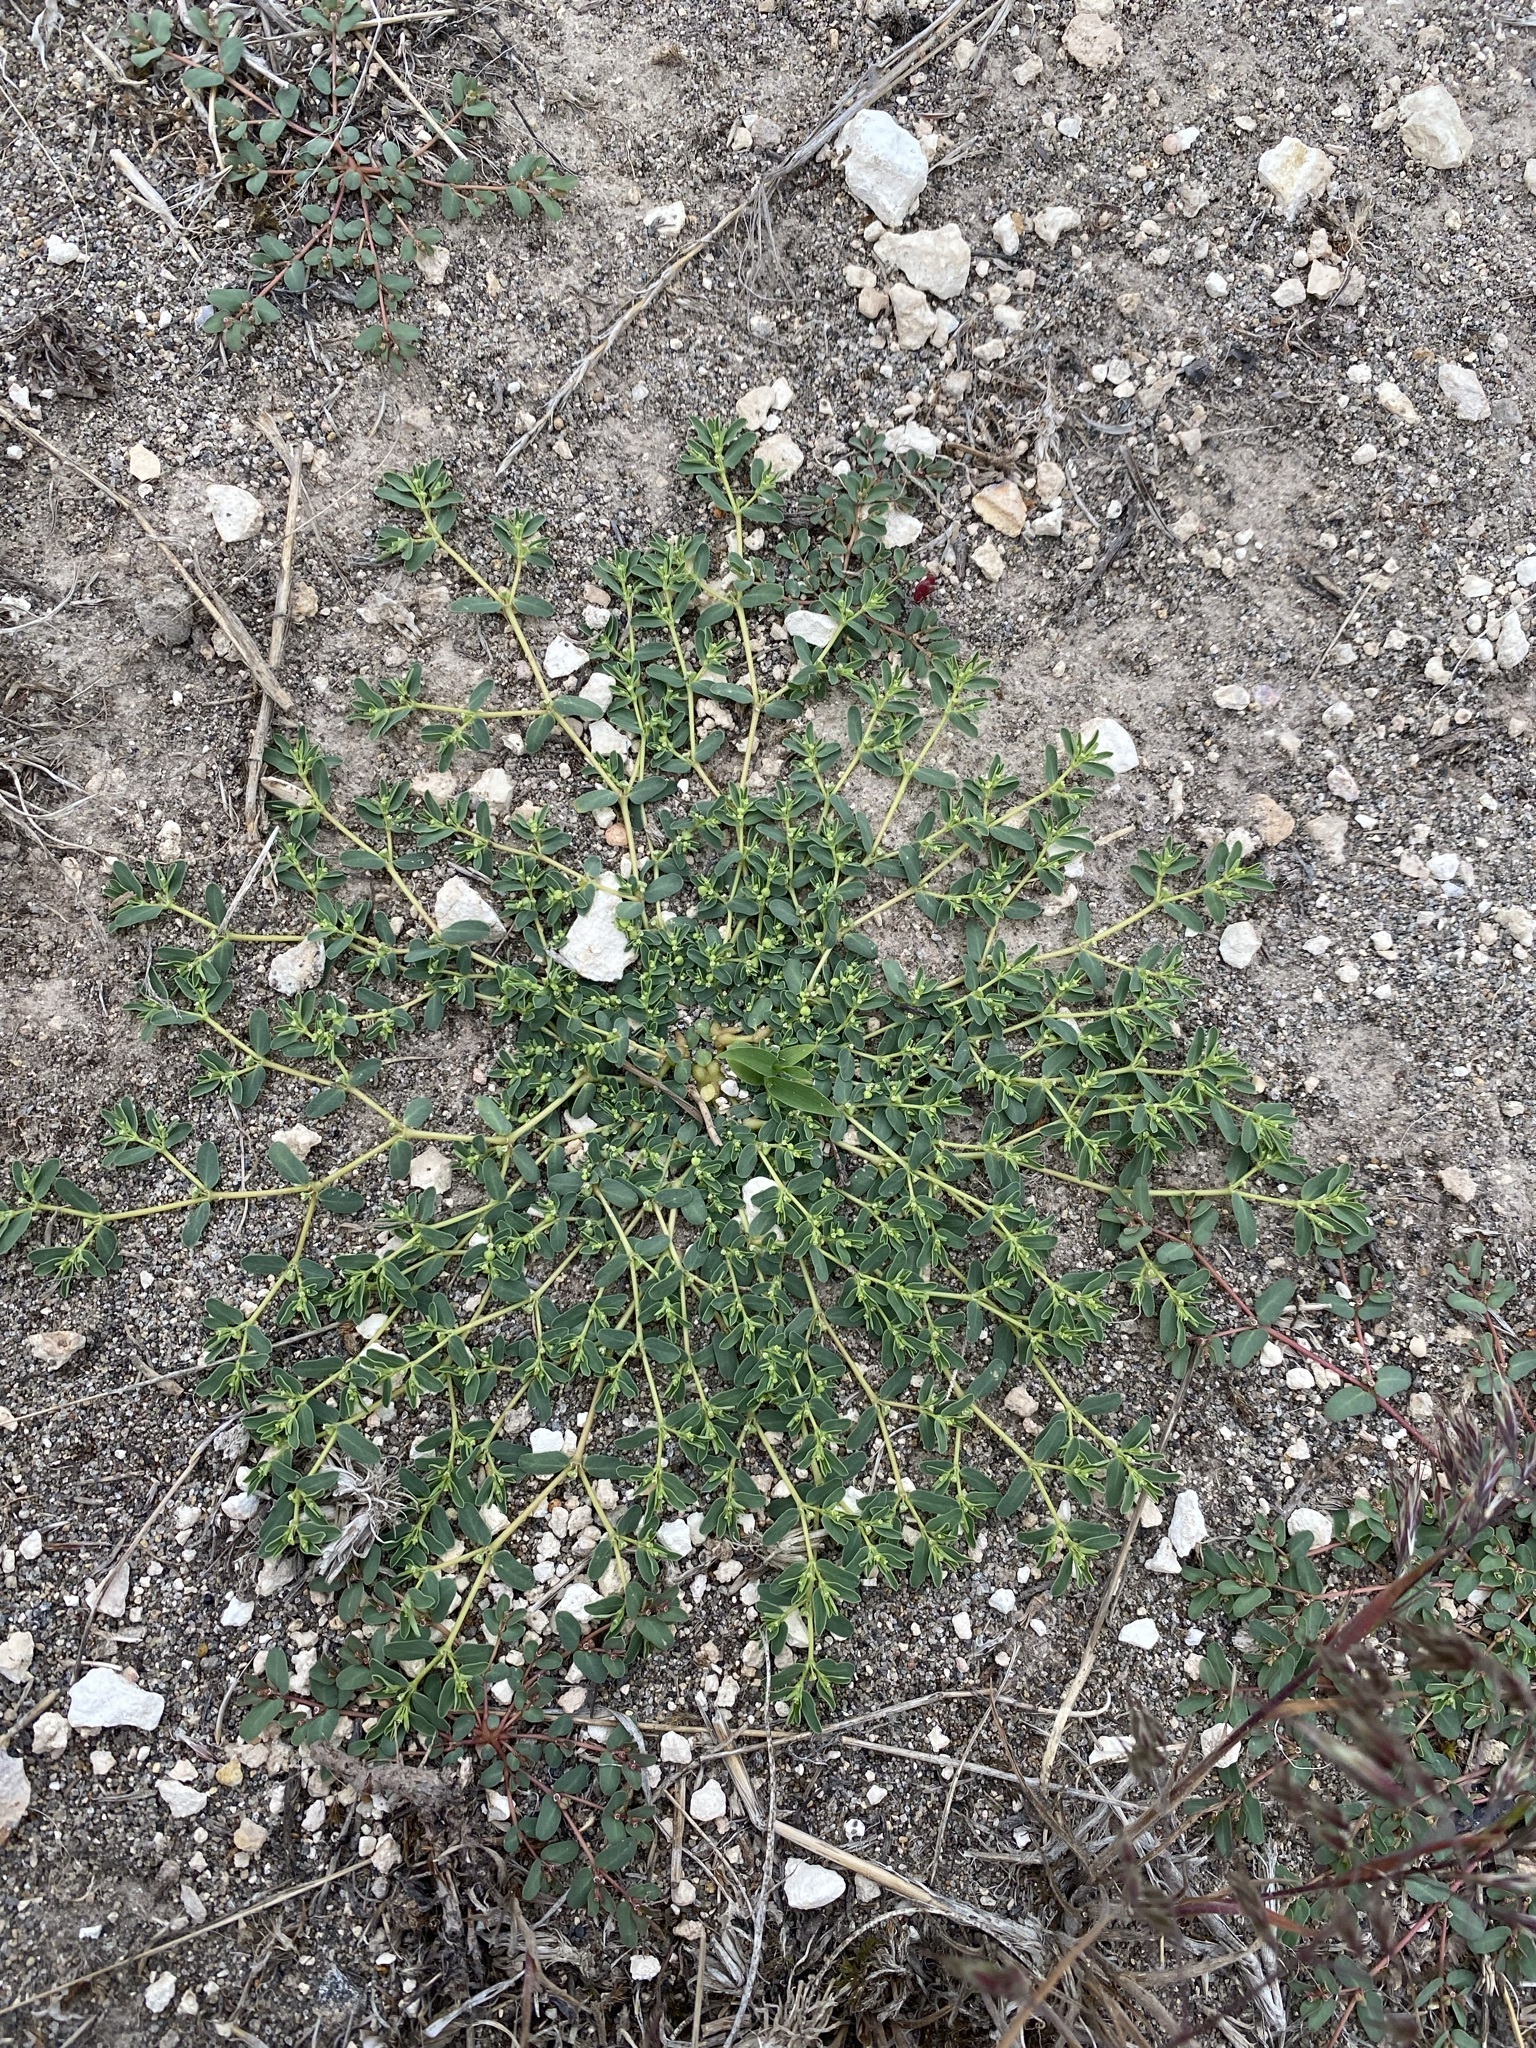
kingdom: Plantae
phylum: Tracheophyta
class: Magnoliopsida
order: Malpighiales
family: Euphorbiaceae
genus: Euphorbia
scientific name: Euphorbia glyptosperma
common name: Corrugate-seeded spurge
